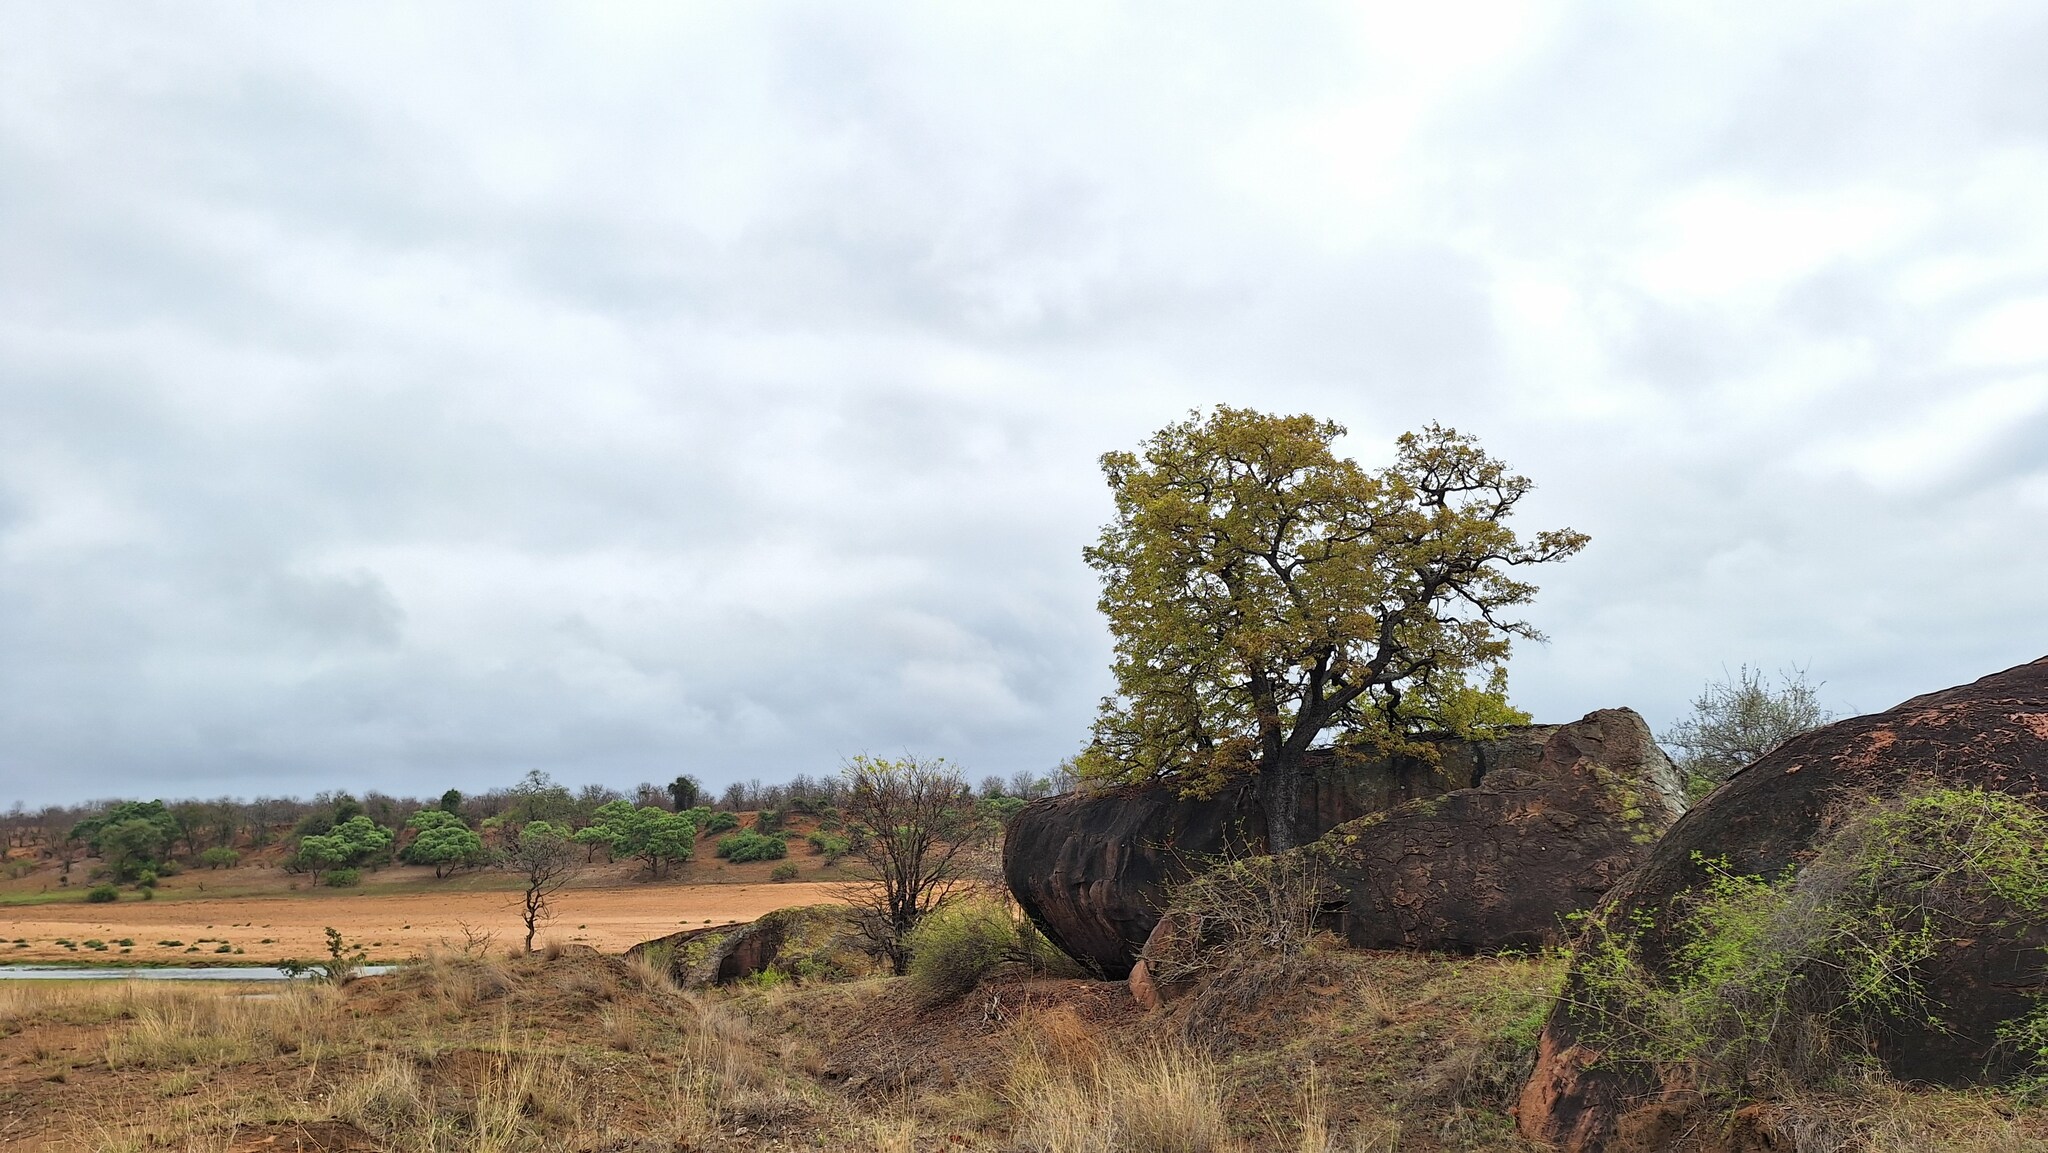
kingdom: Animalia
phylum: Chordata
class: Aves
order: Passeriformes
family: Muscicapidae
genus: Thamnolaea
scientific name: Thamnolaea cinnamomeiventris
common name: Mocking cliff chat
